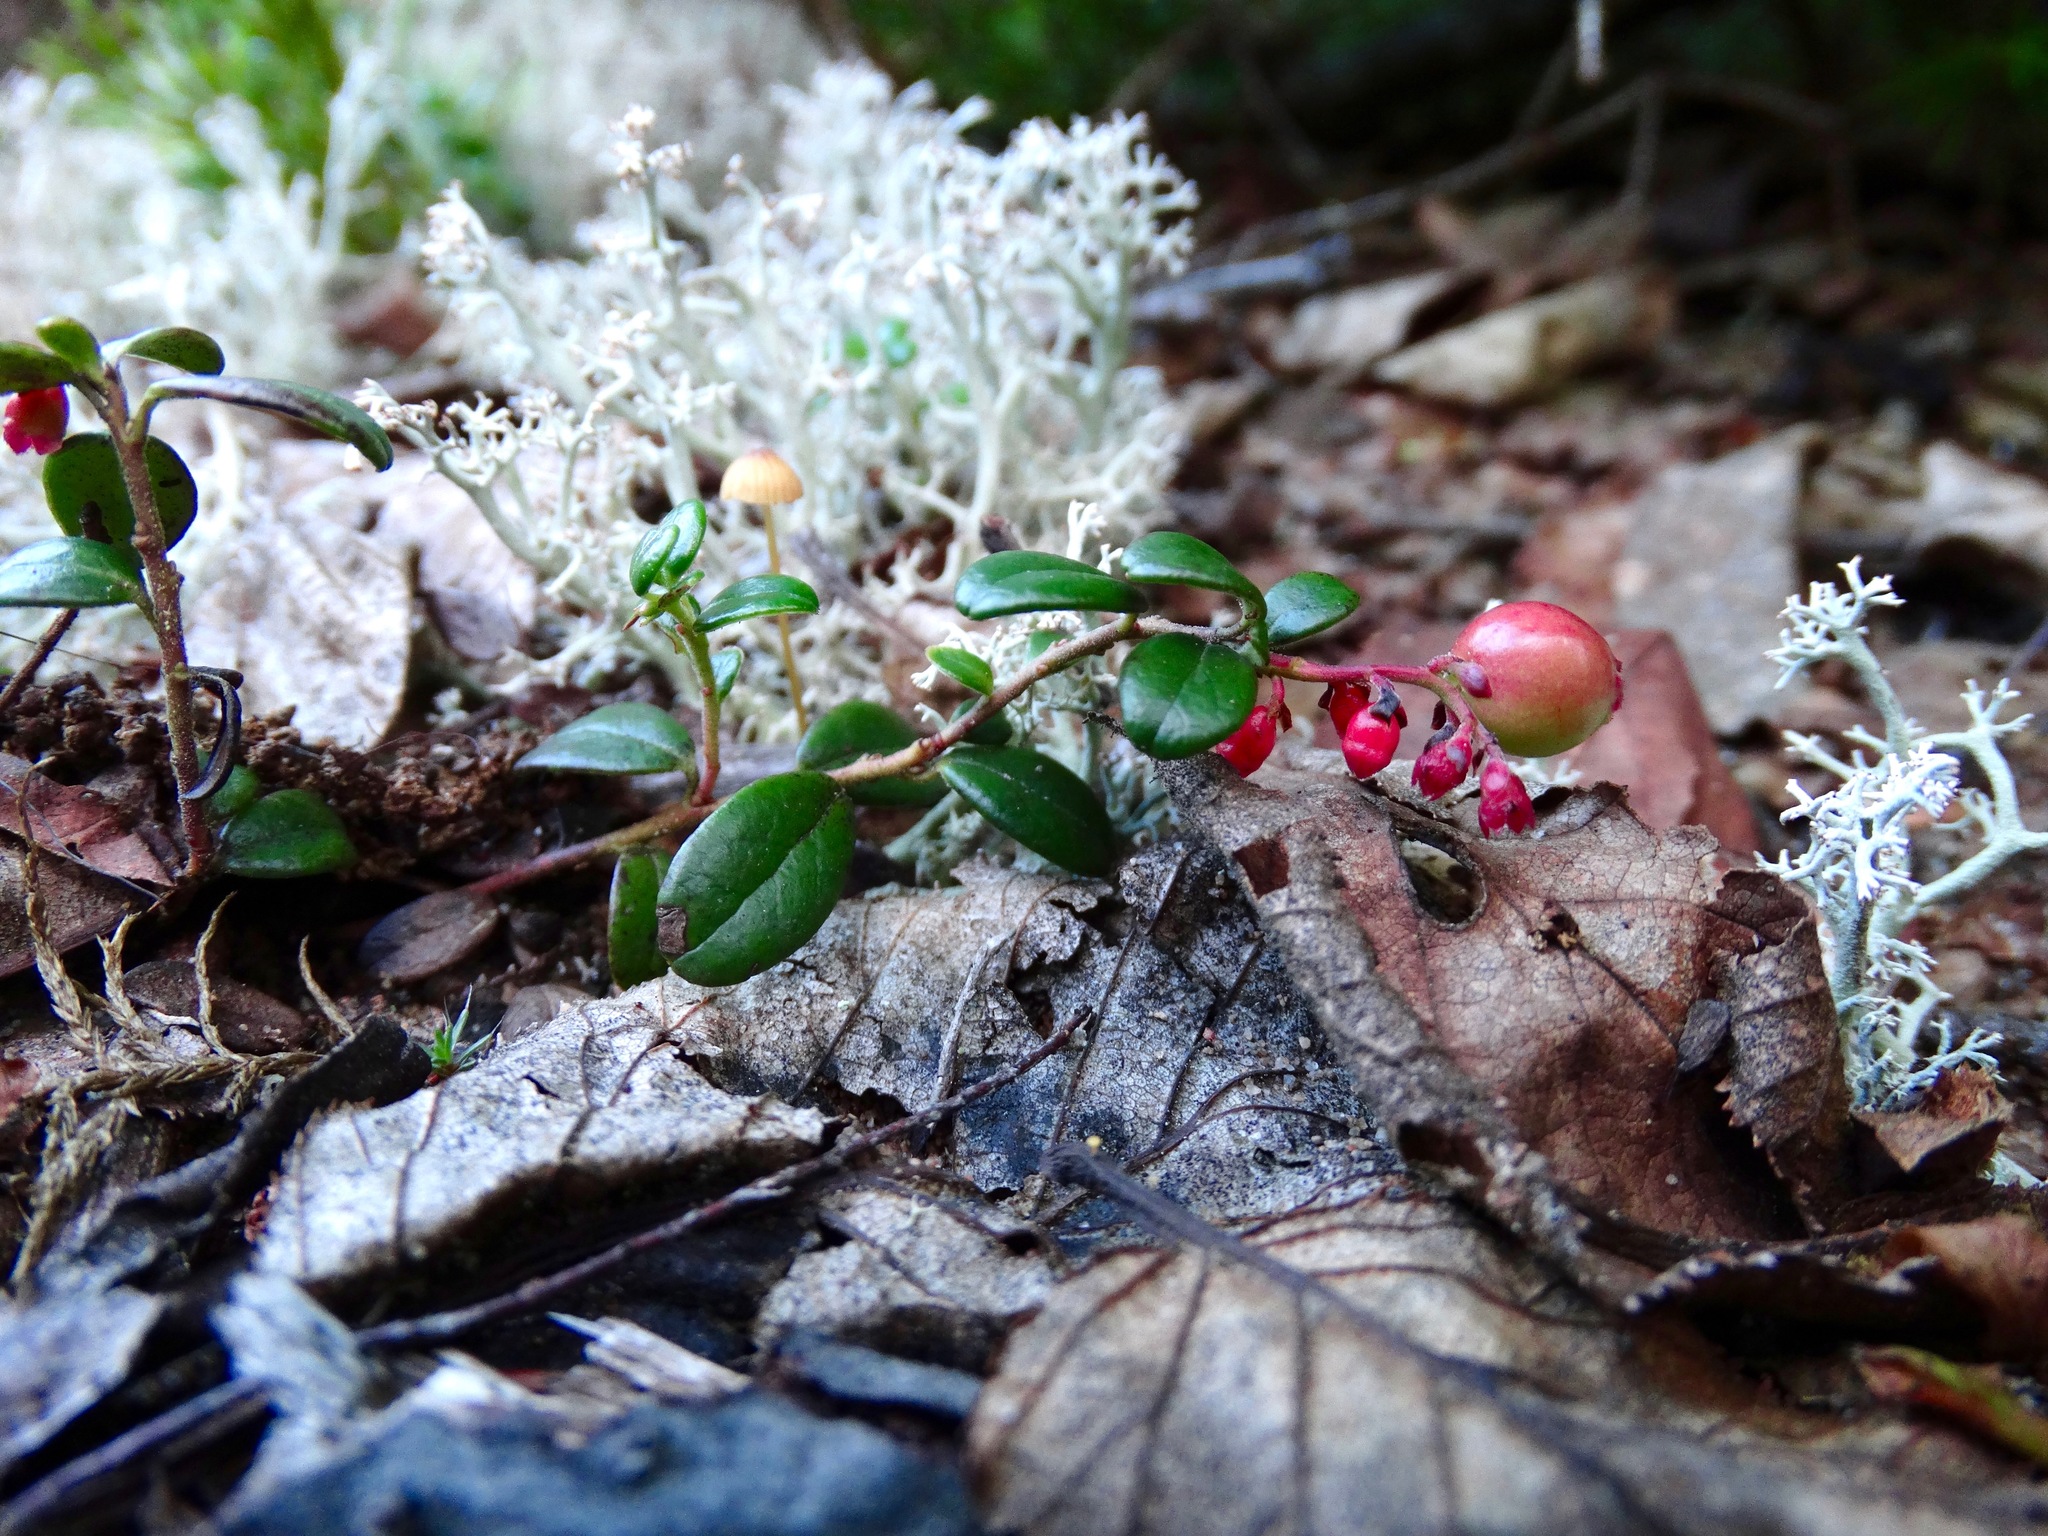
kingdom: Plantae
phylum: Tracheophyta
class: Magnoliopsida
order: Ericales
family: Ericaceae
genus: Vaccinium
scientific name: Vaccinium macrocarpon
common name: American cranberry
